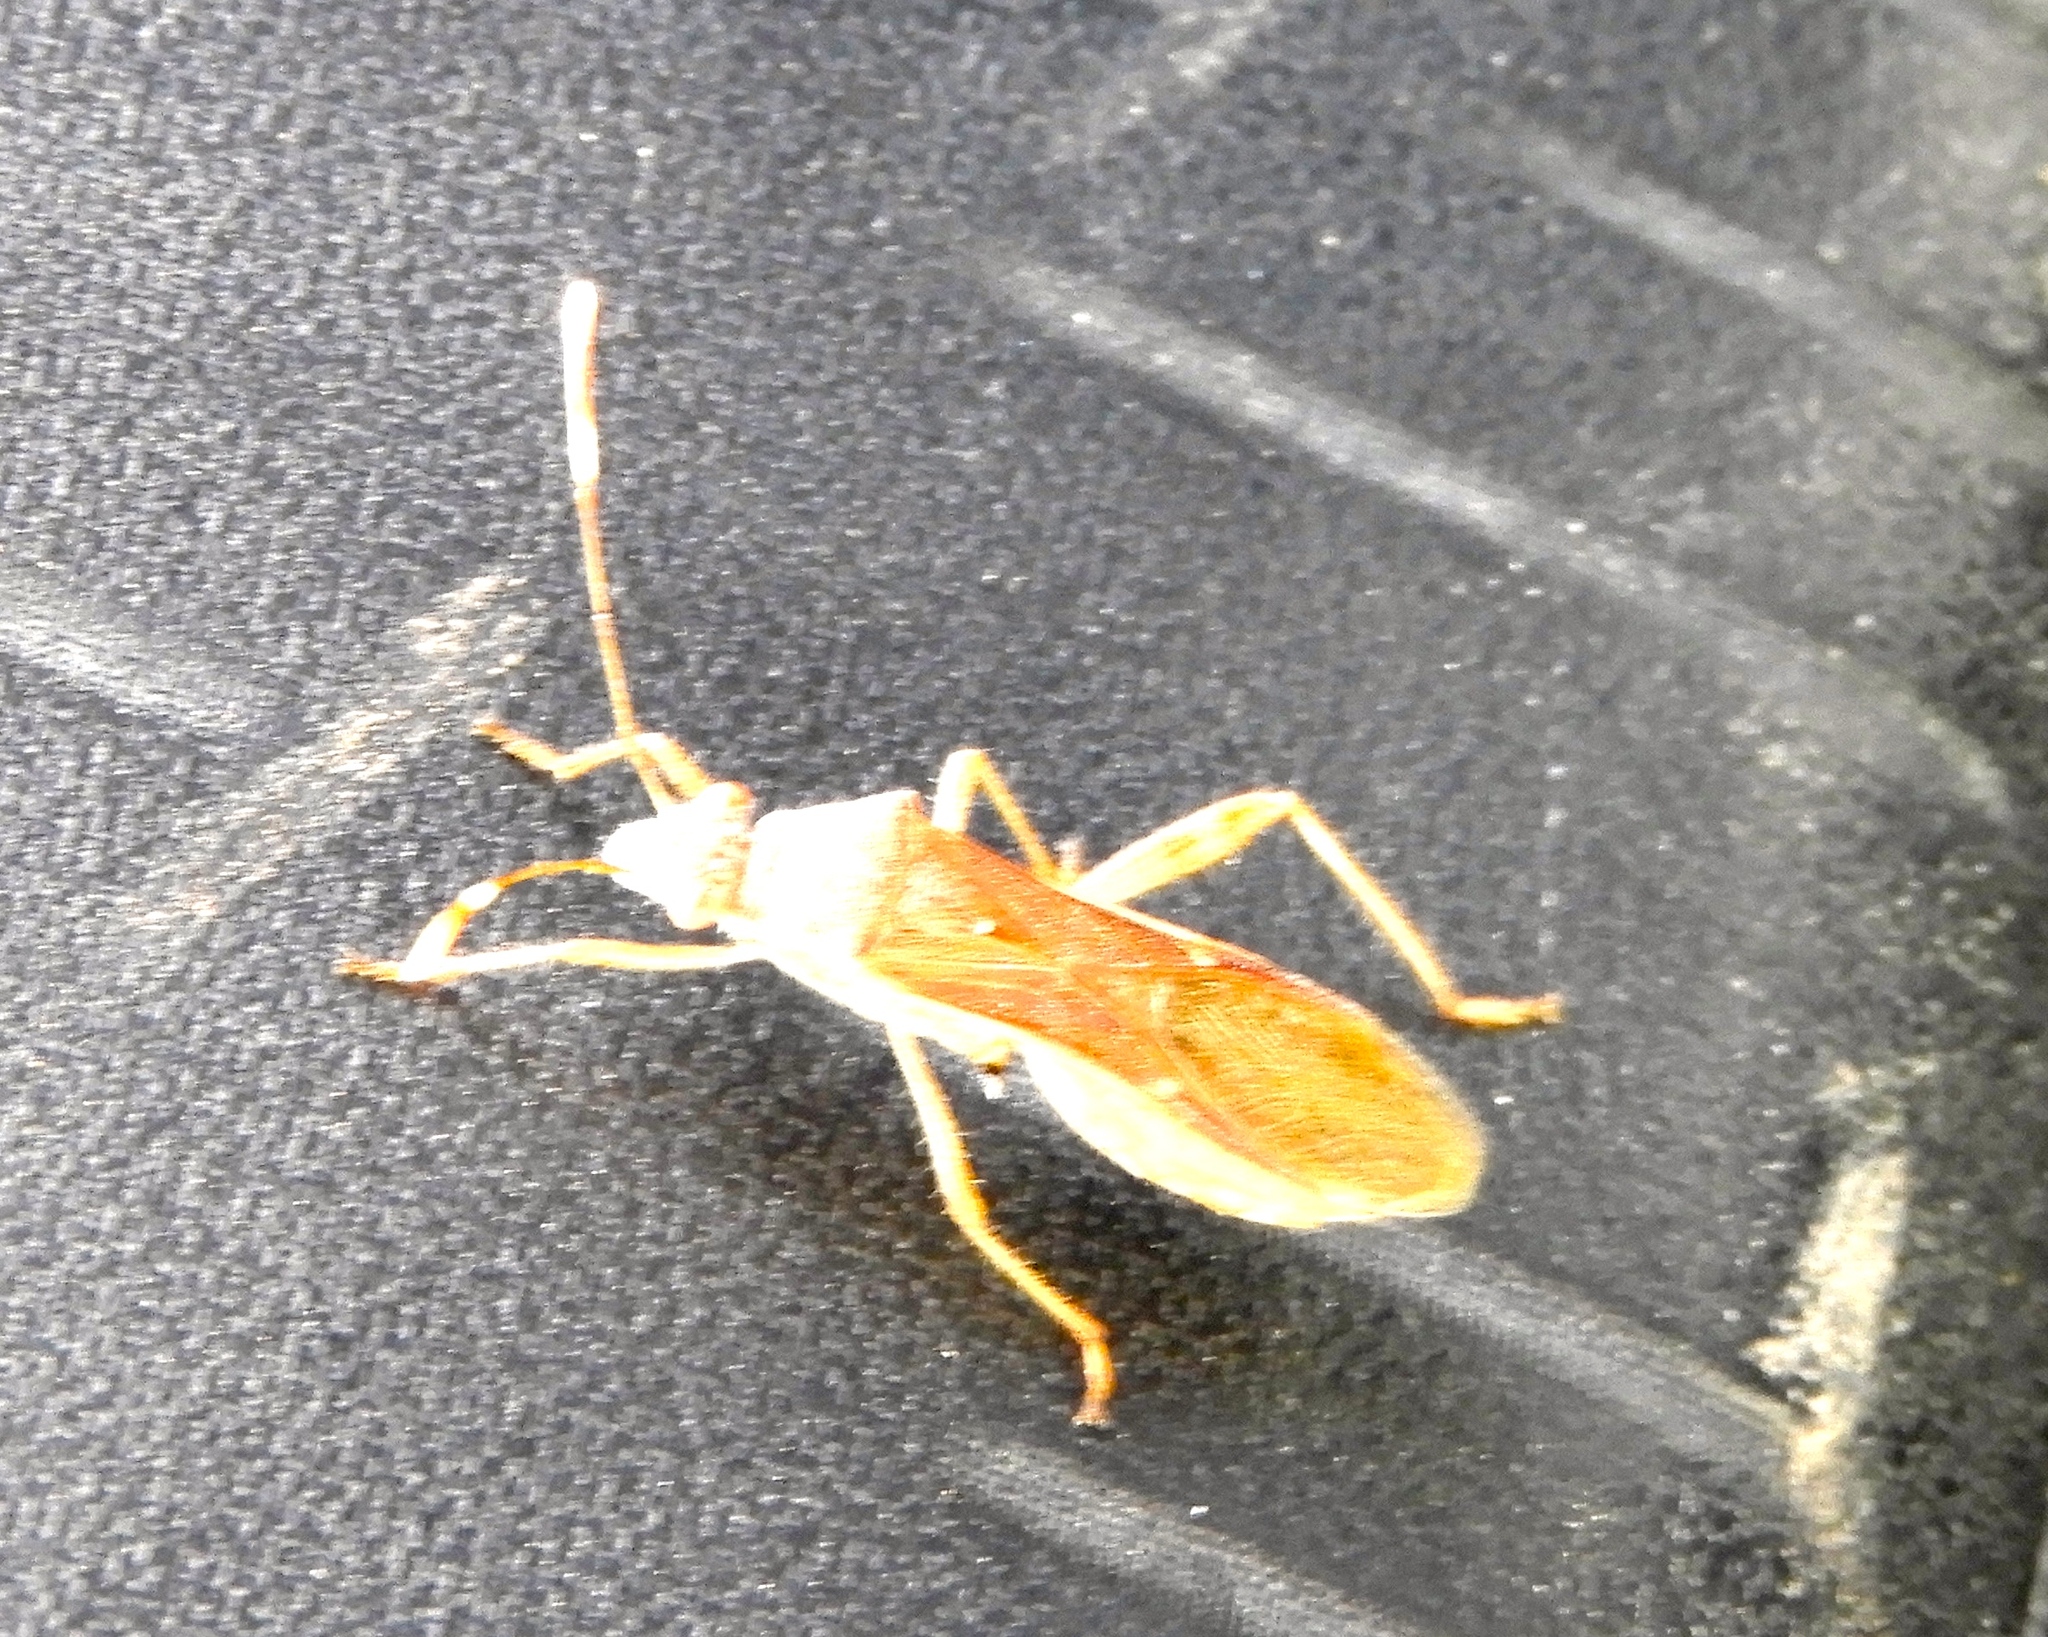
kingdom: Animalia
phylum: Arthropoda
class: Insecta
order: Hemiptera
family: Alydidae
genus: Burtinus
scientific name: Burtinus notatipennis
